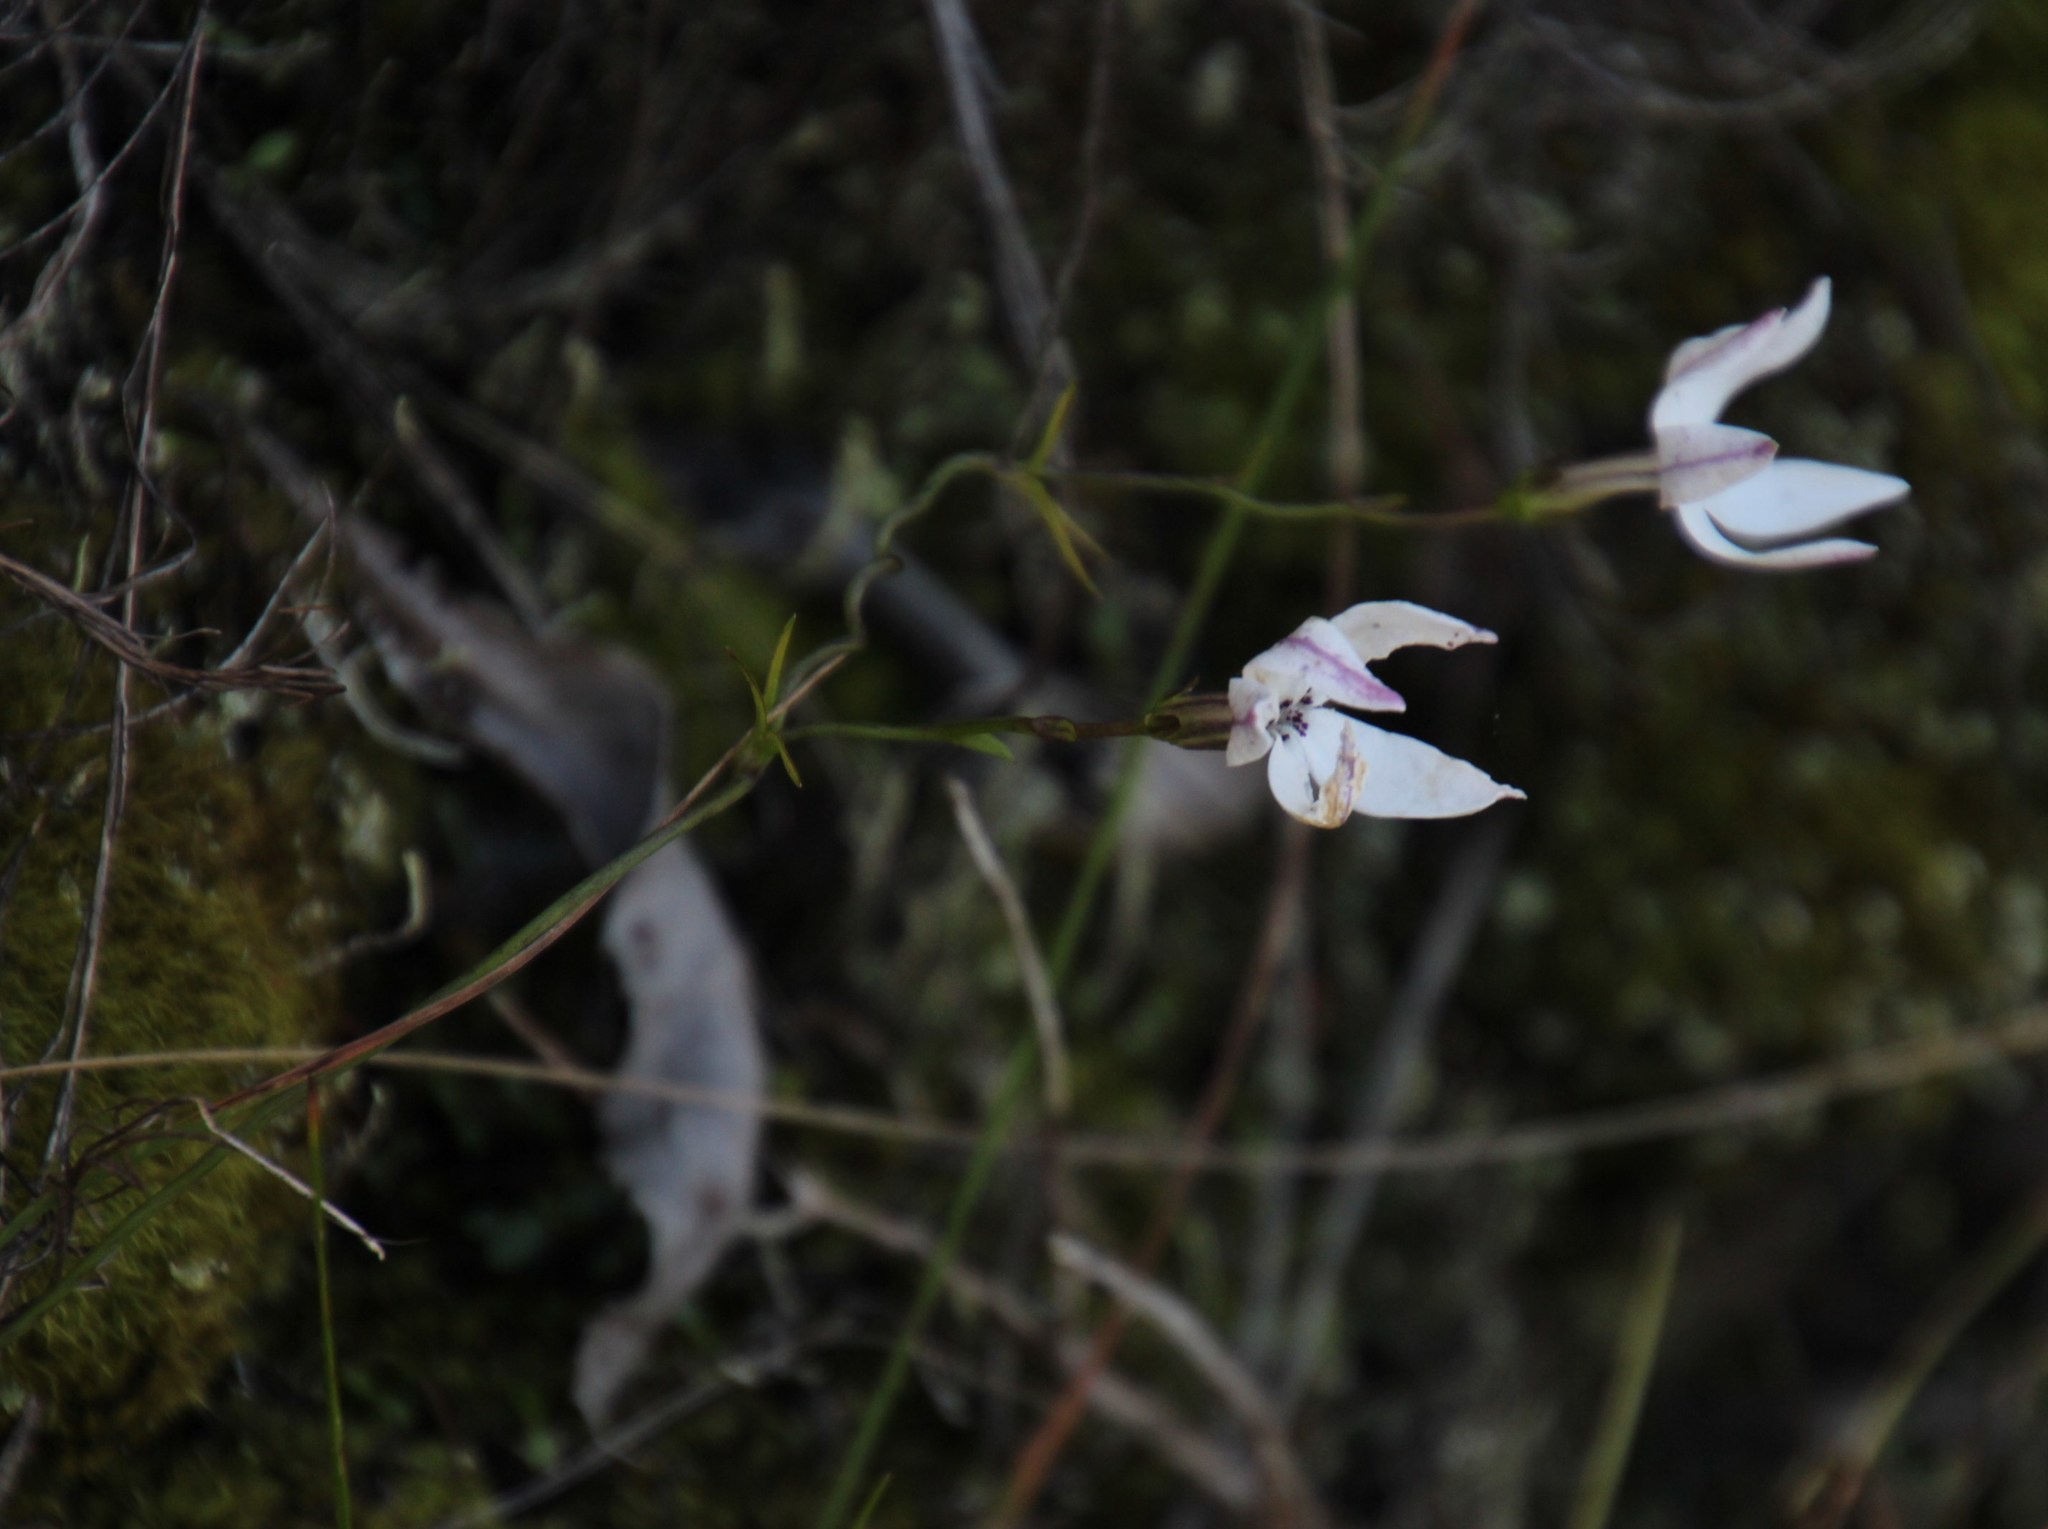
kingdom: Plantae
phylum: Tracheophyta
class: Magnoliopsida
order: Asterales
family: Campanulaceae
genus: Cyphia
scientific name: Cyphia volubilis
